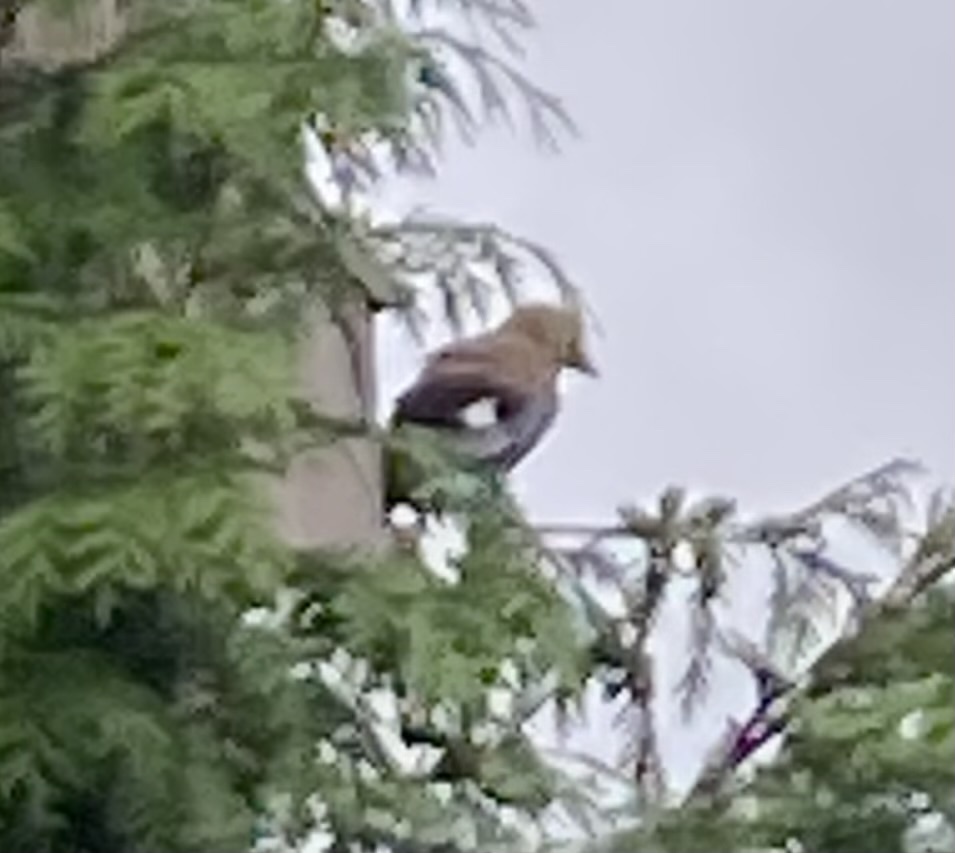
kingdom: Animalia
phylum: Chordata
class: Aves
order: Passeriformes
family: Corvidae
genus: Garrulus
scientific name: Garrulus glandarius
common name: Eurasian jay
